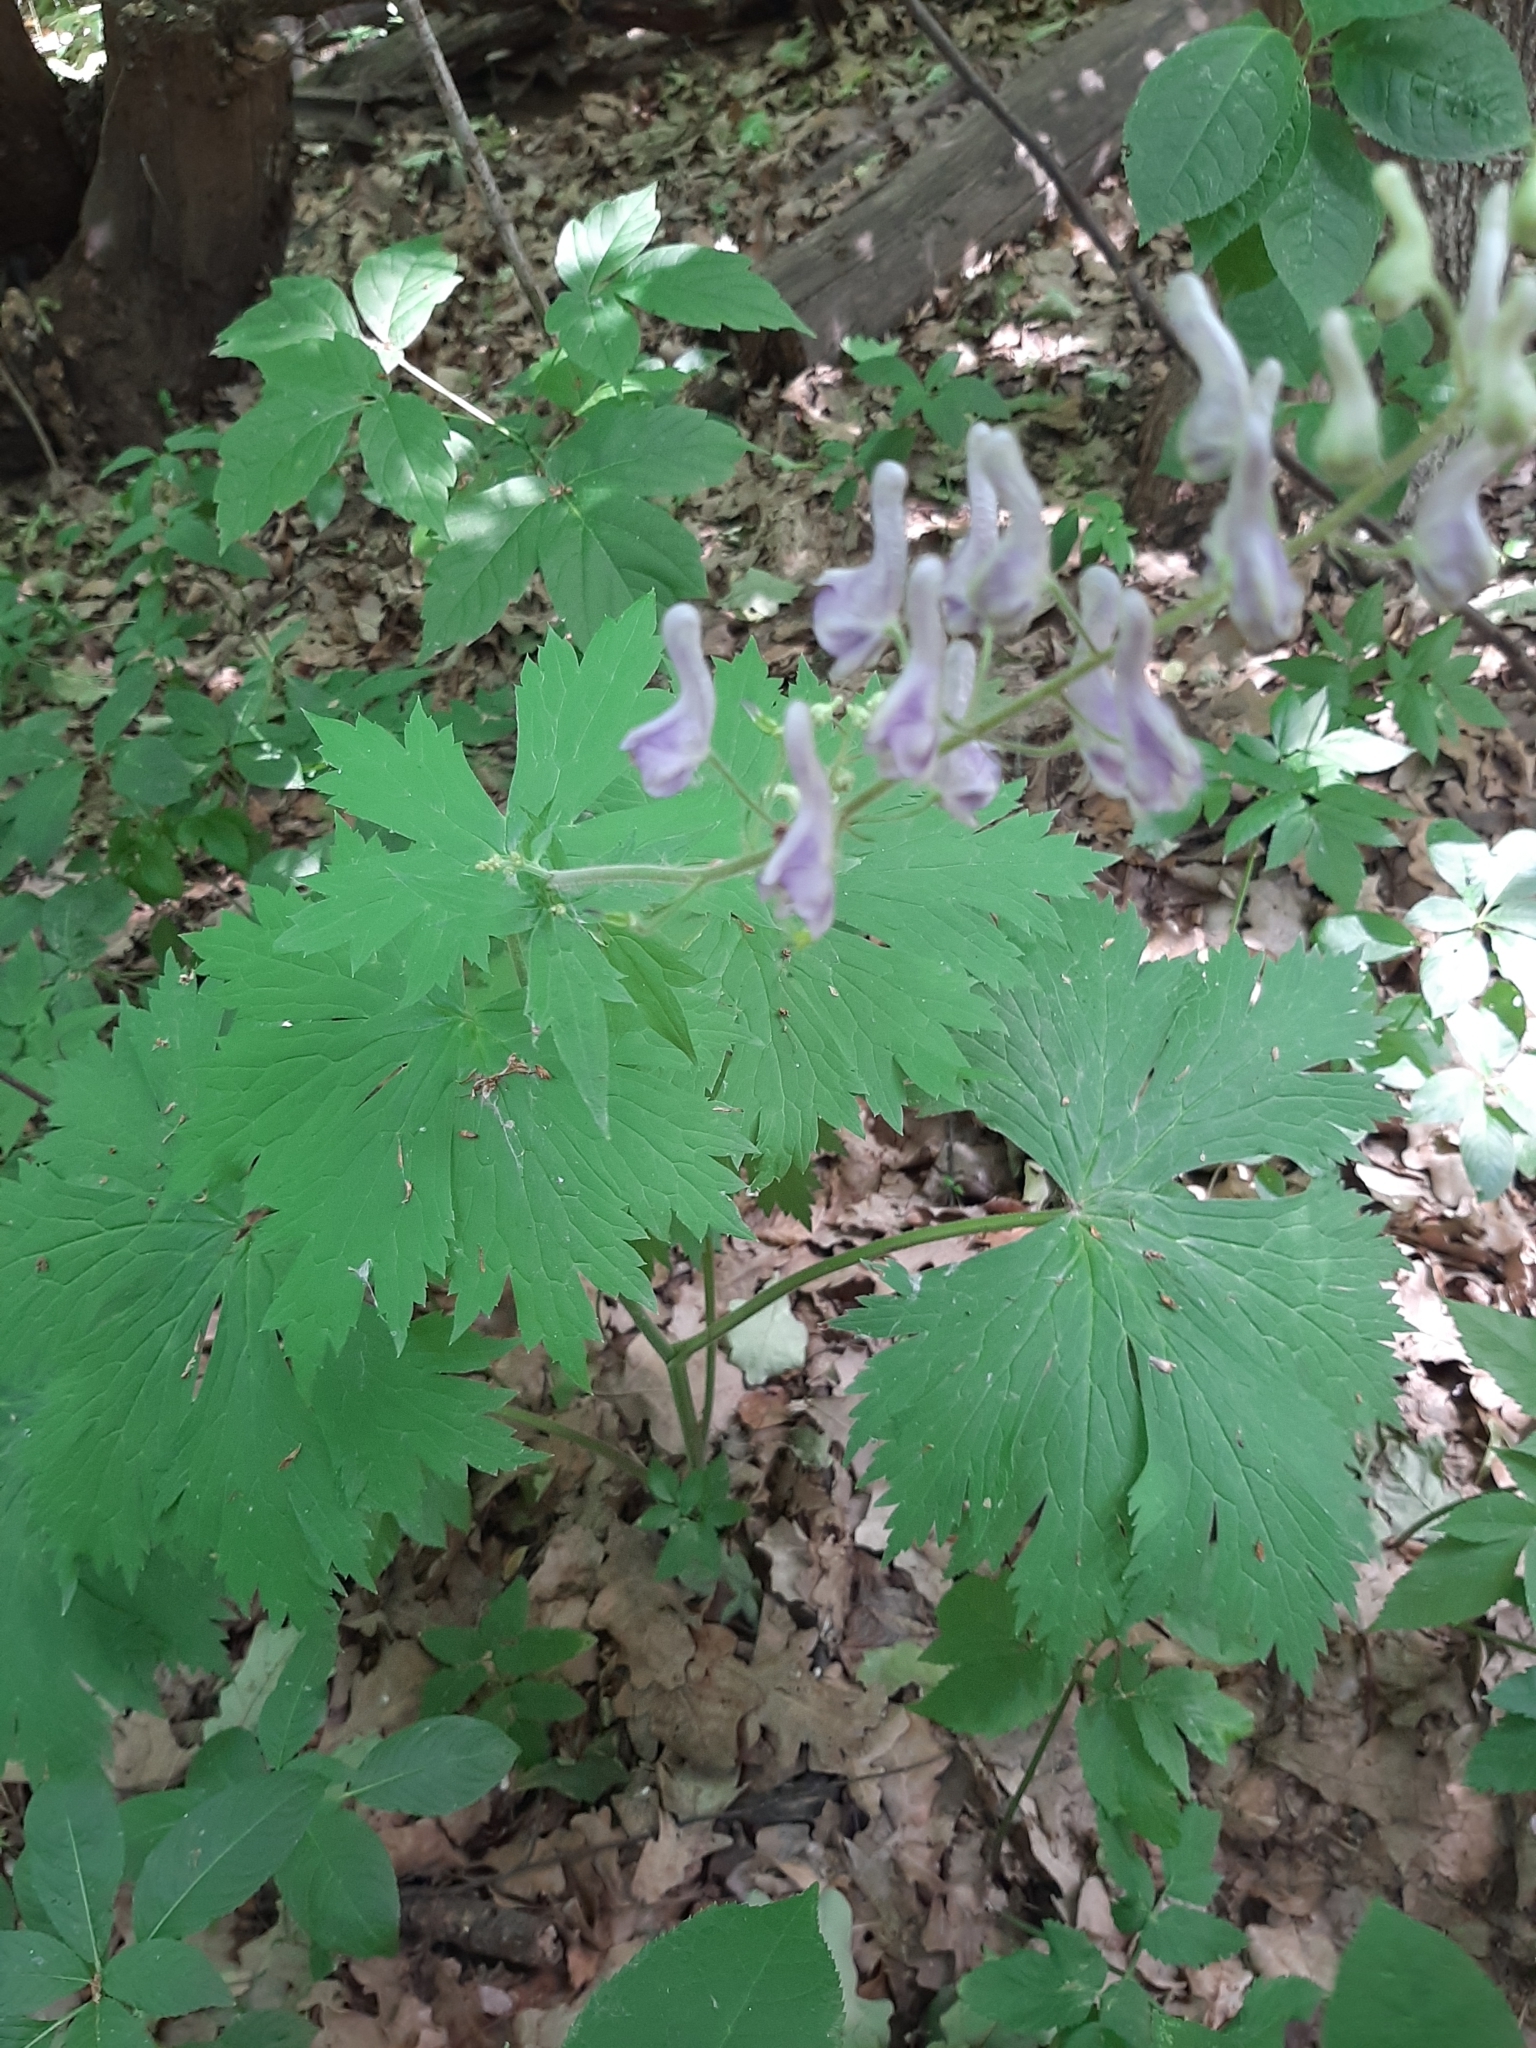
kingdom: Plantae
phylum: Tracheophyta
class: Magnoliopsida
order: Ranunculales
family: Ranunculaceae
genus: Aconitum
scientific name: Aconitum septentrionale
